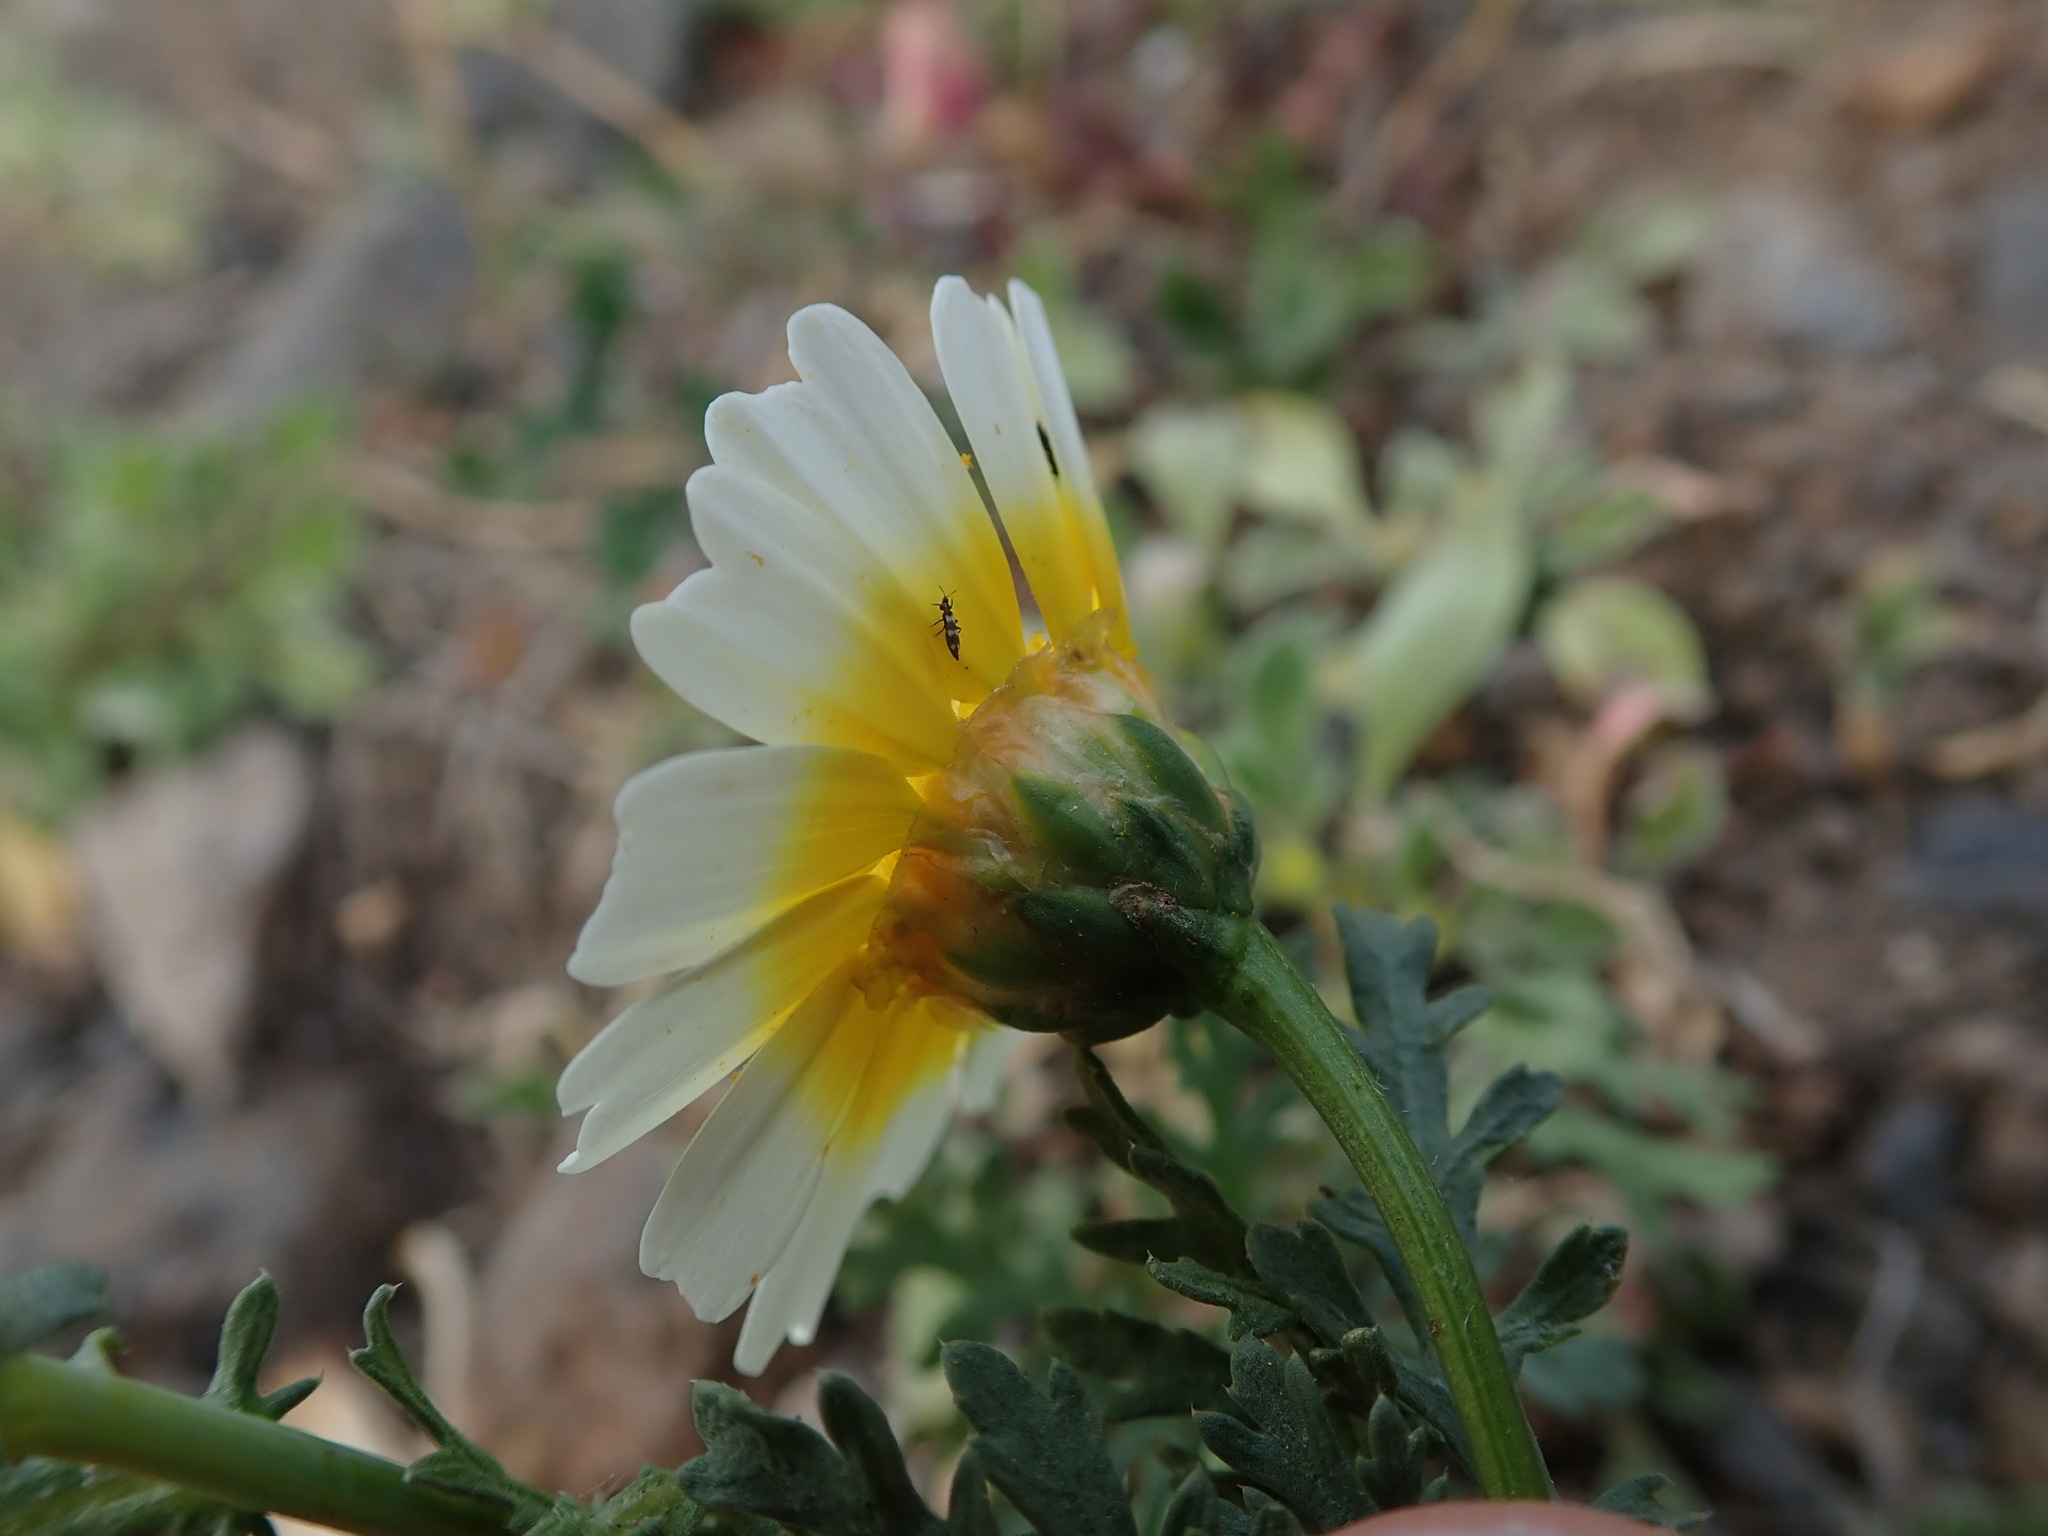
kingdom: Plantae
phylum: Tracheophyta
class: Magnoliopsida
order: Asterales
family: Asteraceae
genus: Glebionis
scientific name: Glebionis coronaria
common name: Crowndaisy
